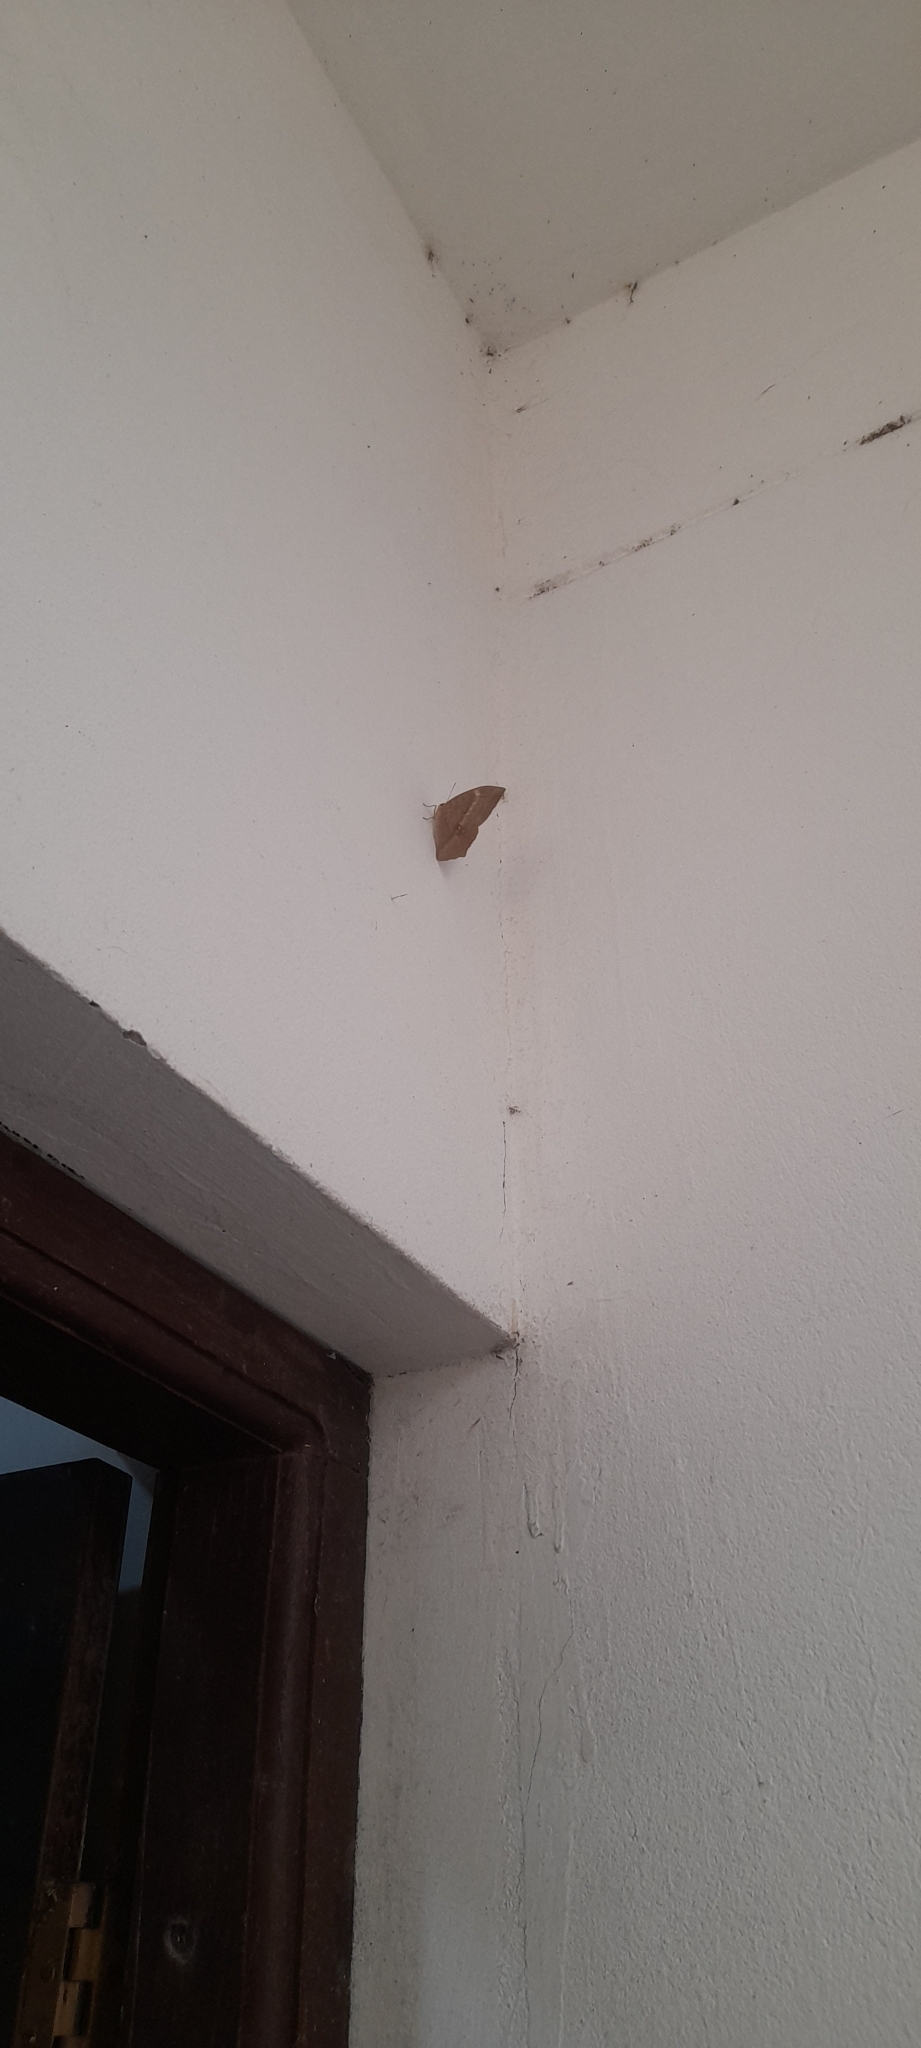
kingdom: Animalia
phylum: Arthropoda
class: Insecta
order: Lepidoptera
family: Nymphalidae
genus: Discophora
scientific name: Discophora sondaica
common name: Common duffer
